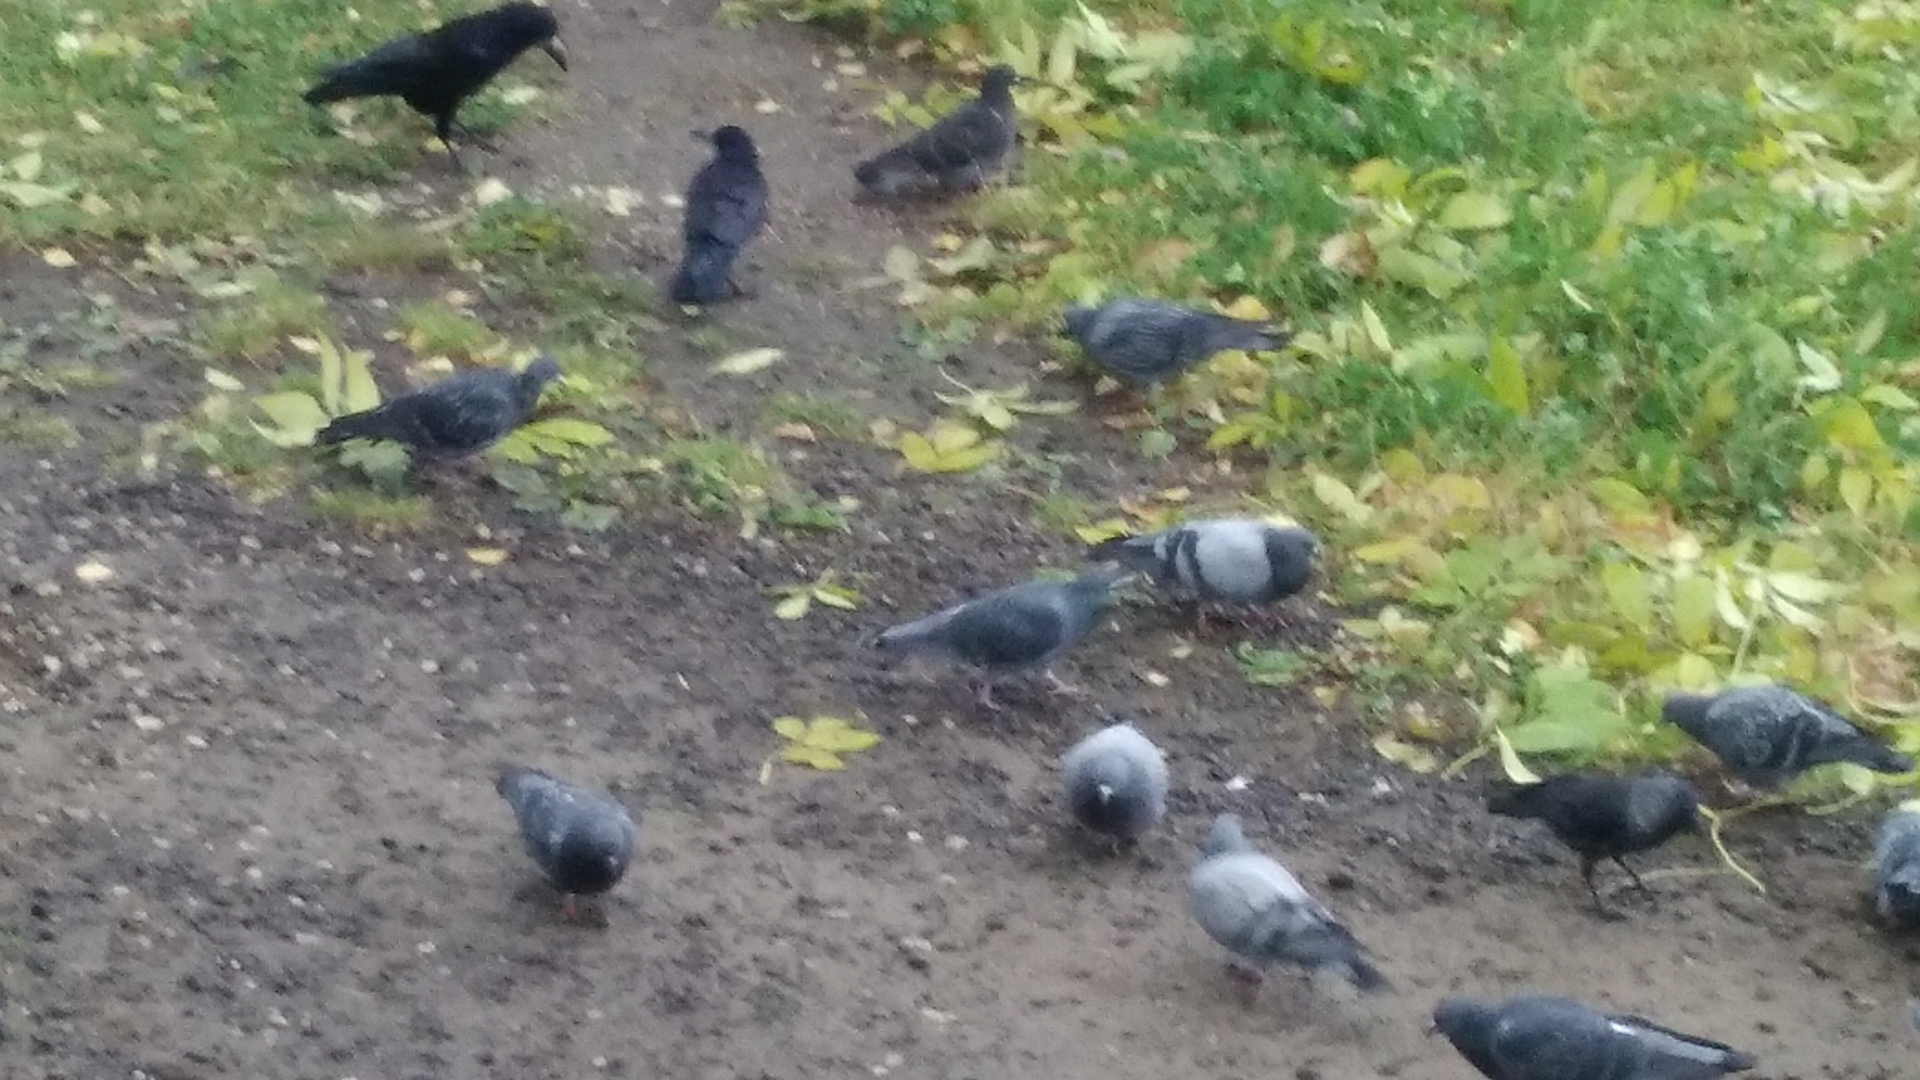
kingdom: Animalia
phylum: Chordata
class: Aves
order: Passeriformes
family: Corvidae
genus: Corvus
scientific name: Corvus frugilegus
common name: Rook
